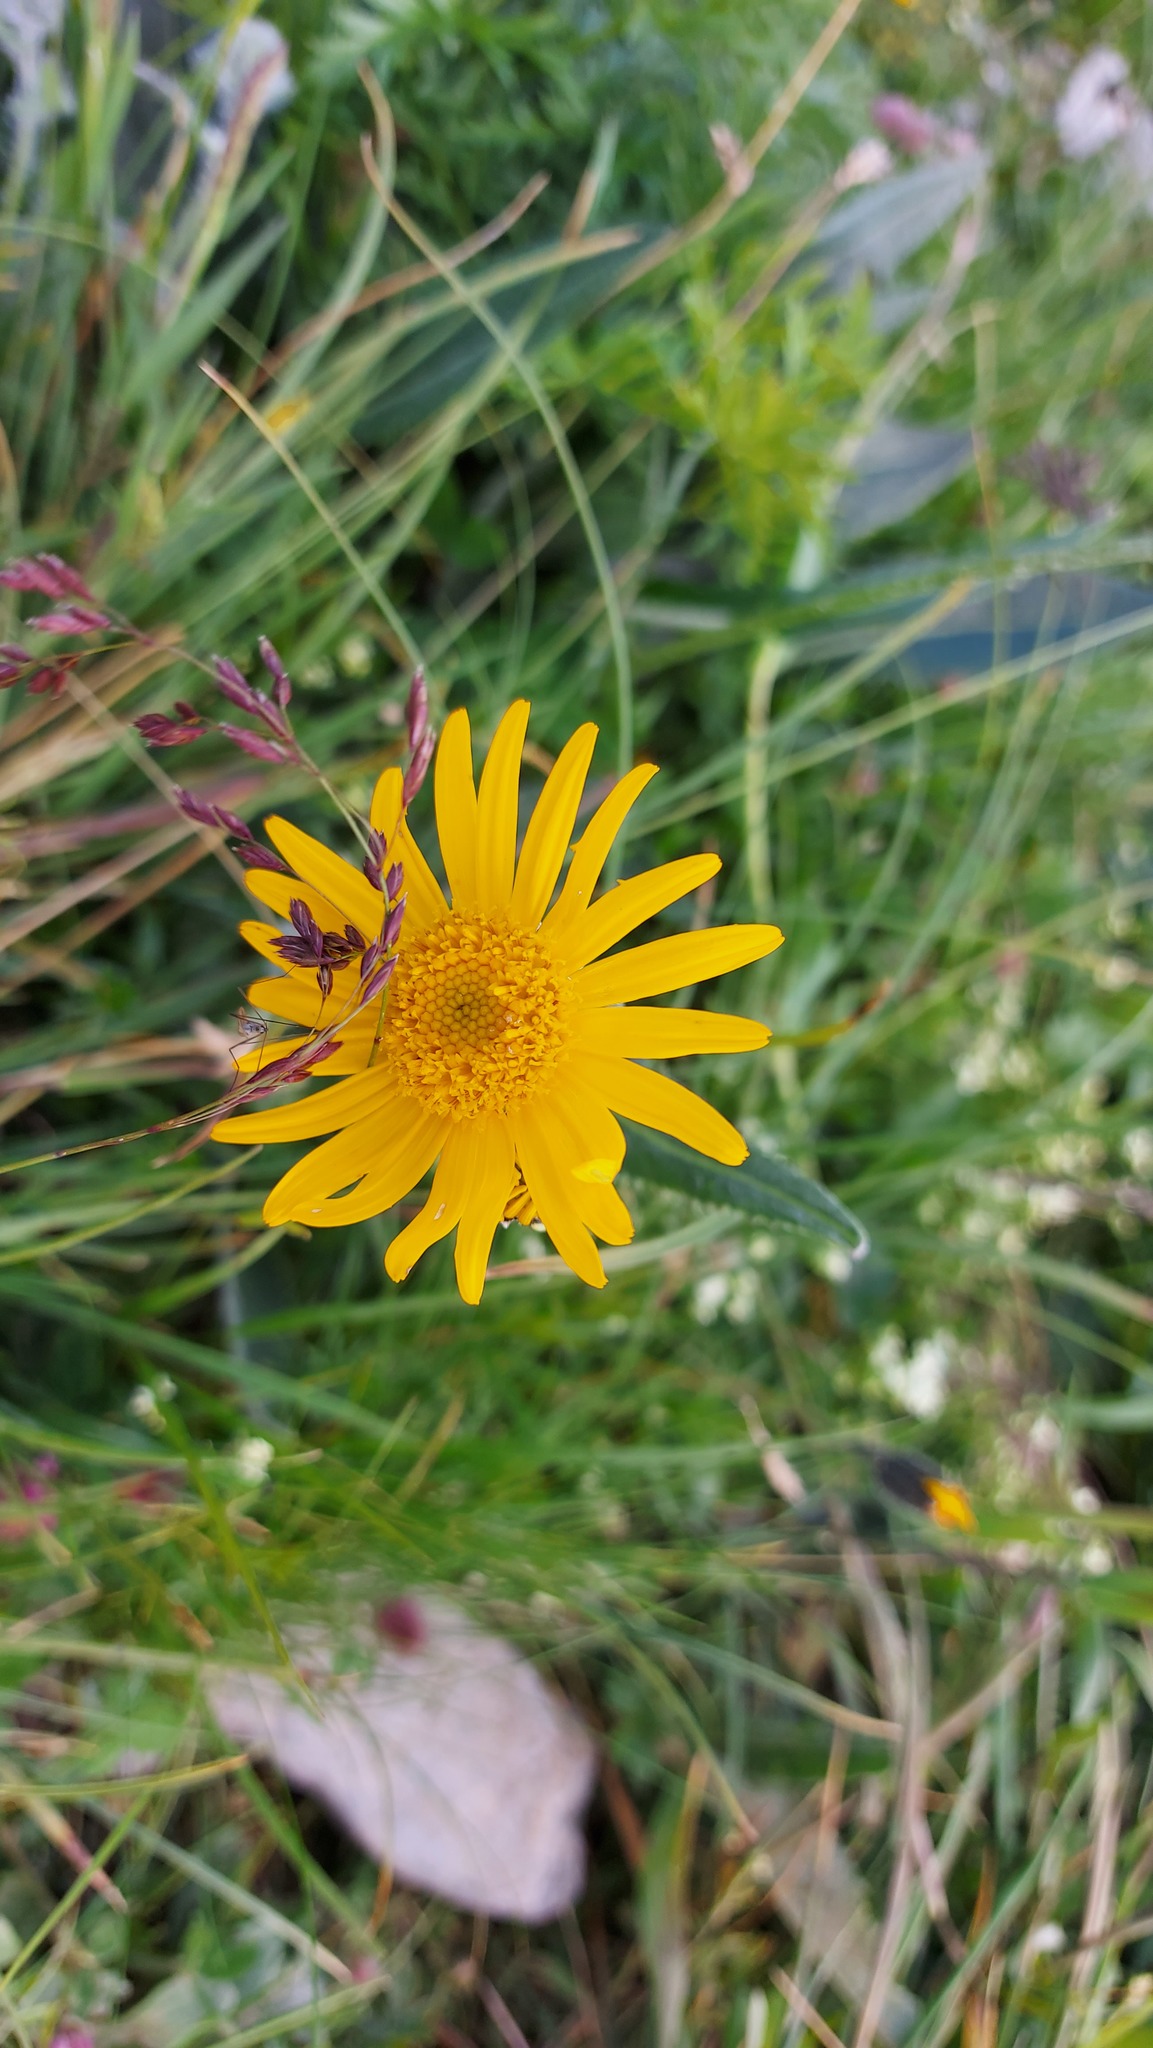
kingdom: Plantae
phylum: Tracheophyta
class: Magnoliopsida
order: Asterales
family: Asteraceae
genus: Senecio
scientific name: Senecio doronicum
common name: Chamois ragwort
